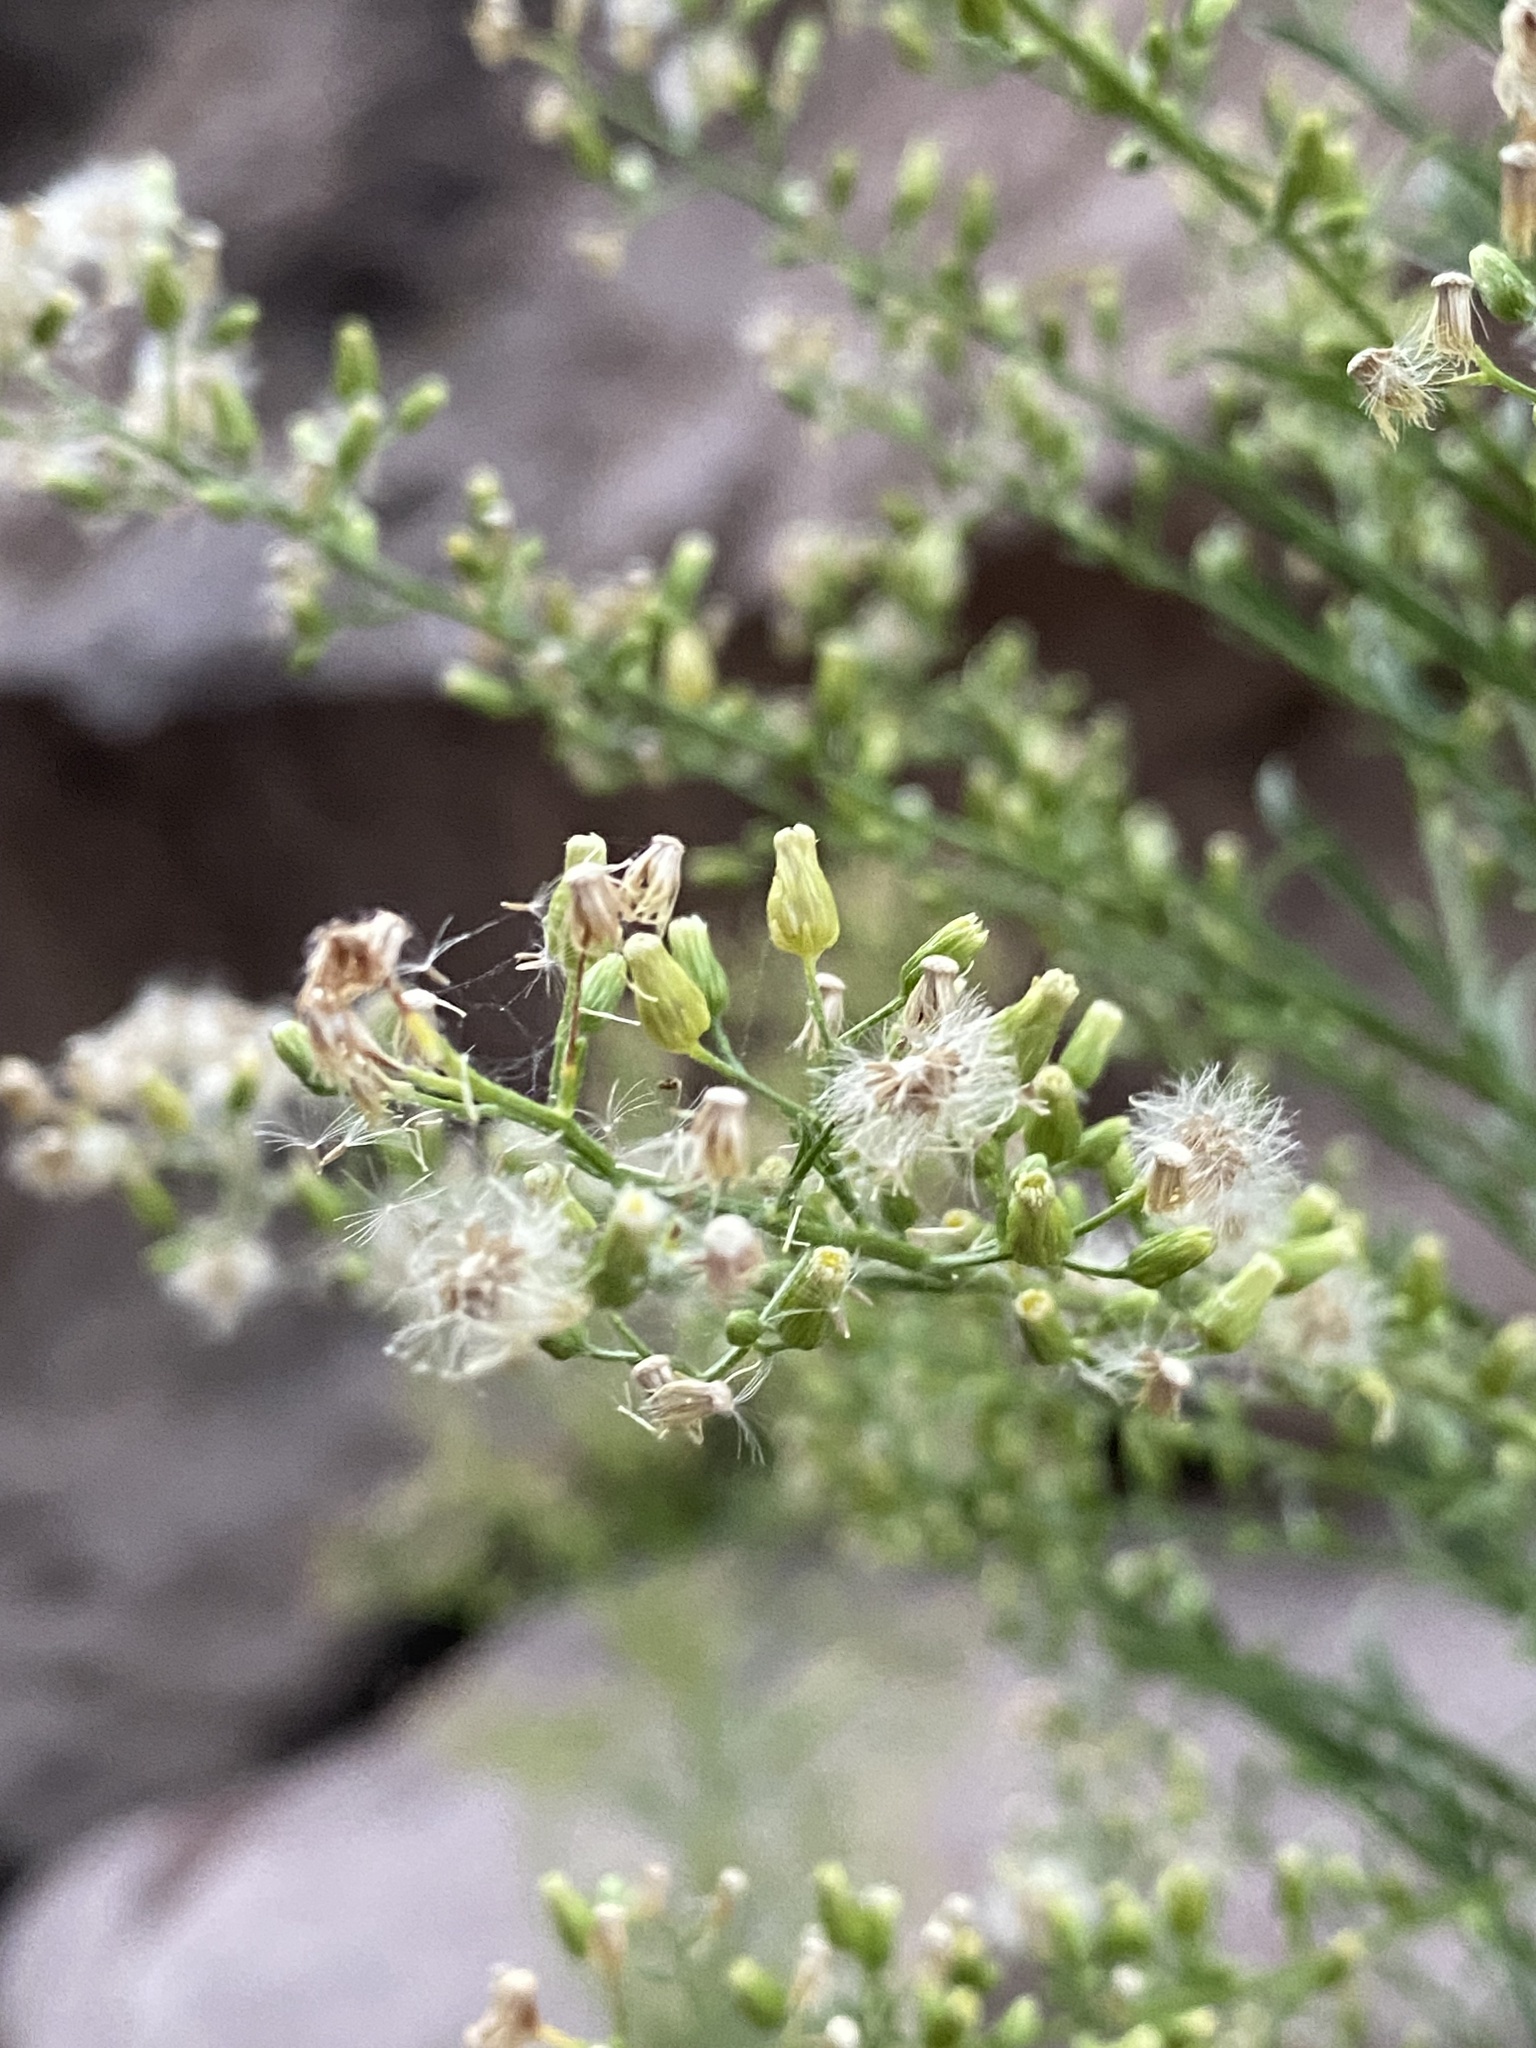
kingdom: Plantae
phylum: Tracheophyta
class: Magnoliopsida
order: Asterales
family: Asteraceae
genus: Erigeron
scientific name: Erigeron canadensis
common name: Canadian fleabane
